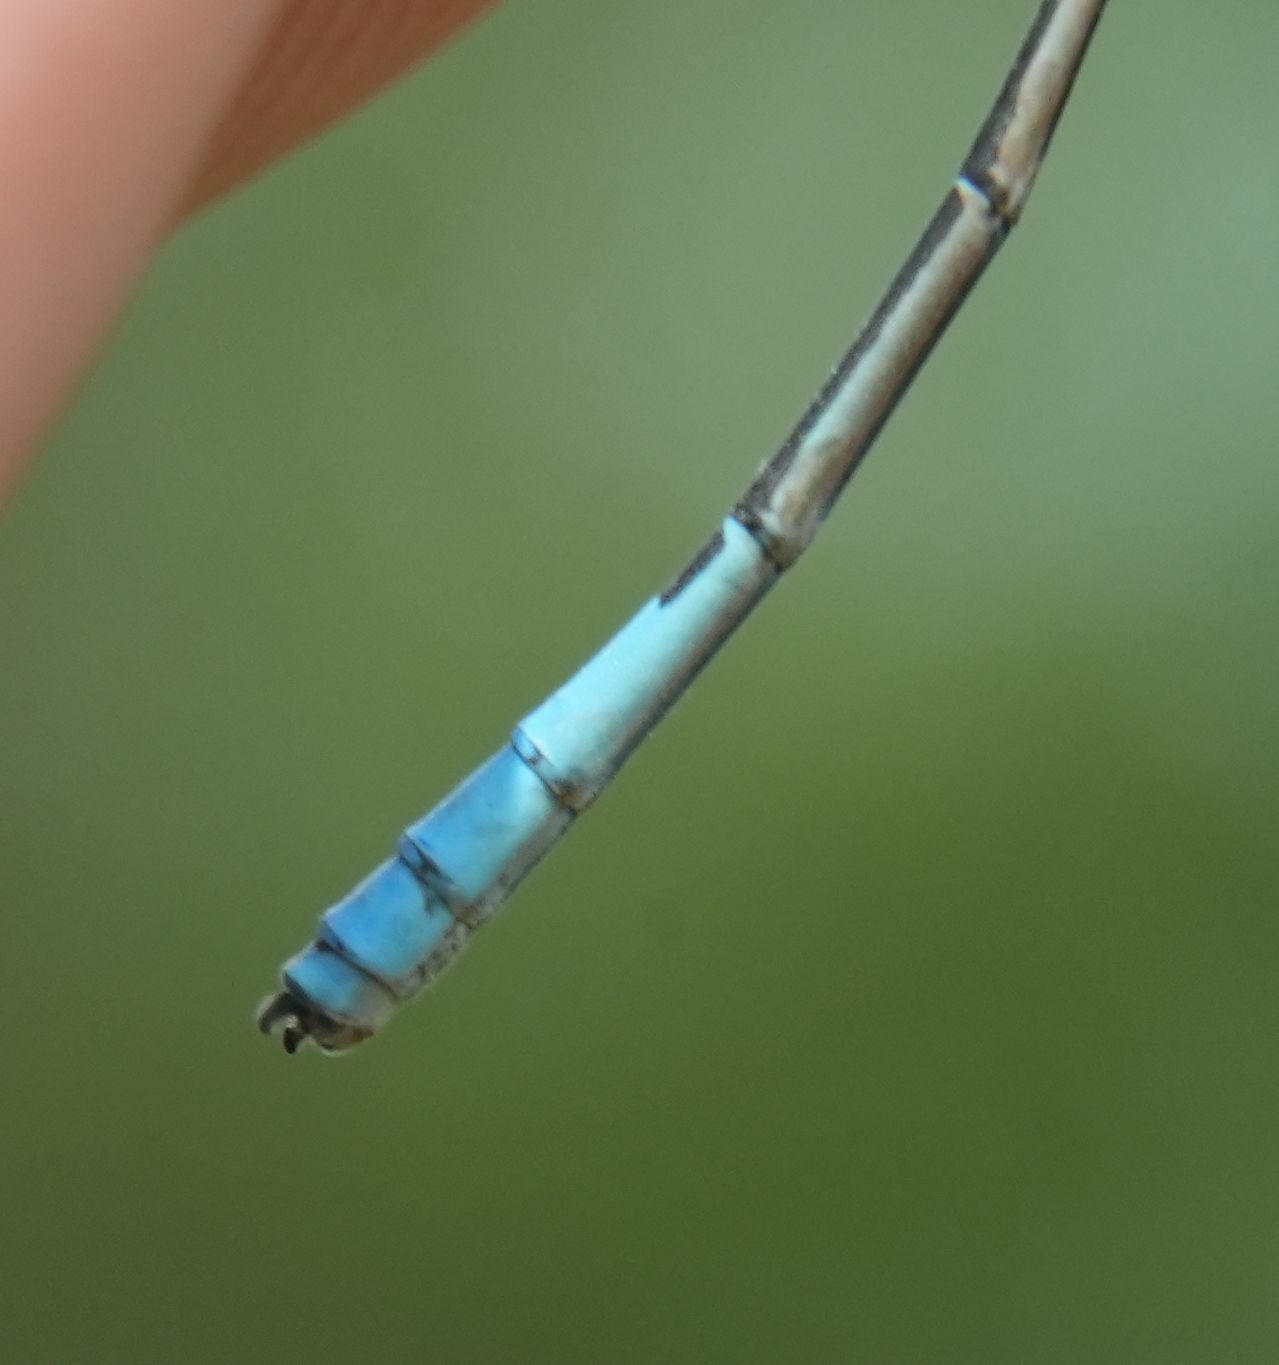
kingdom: Animalia
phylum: Arthropoda
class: Insecta
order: Odonata
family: Coenagrionidae
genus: Enallagma
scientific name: Enallagma aspersum
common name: Azure bluet
